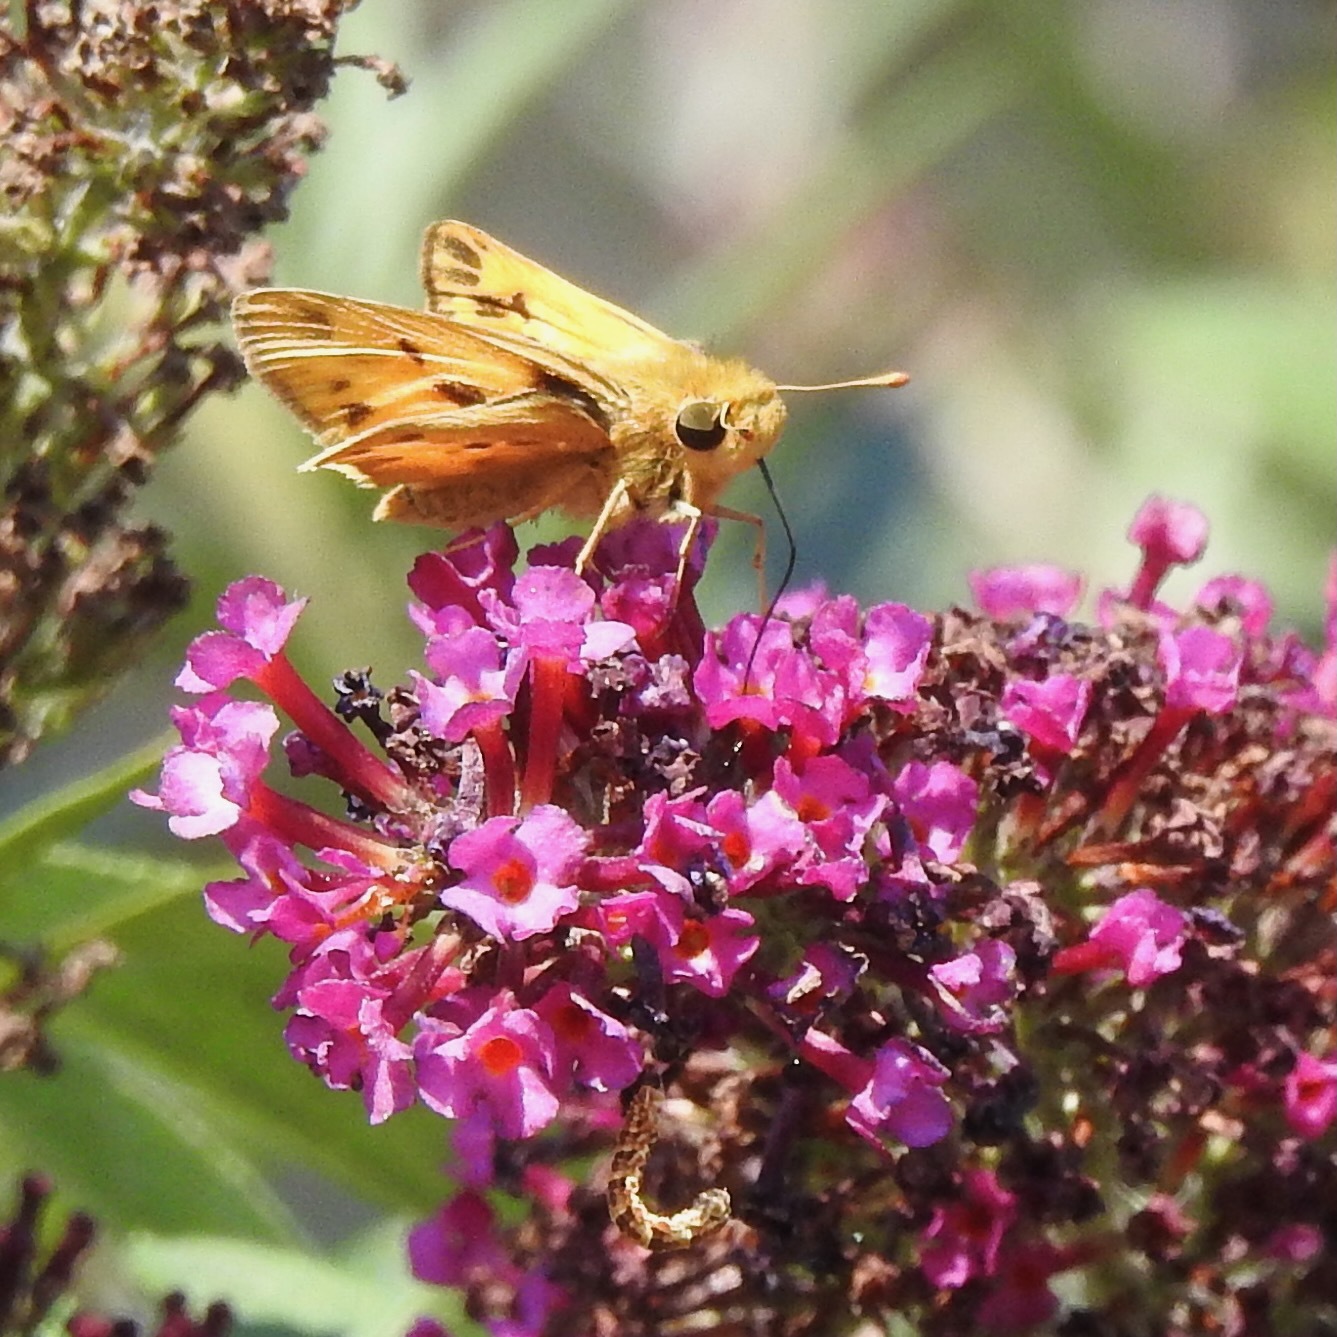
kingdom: Animalia
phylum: Arthropoda
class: Insecta
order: Lepidoptera
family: Hesperiidae
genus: Hylephila
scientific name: Hylephila phyleus
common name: Fiery skipper
